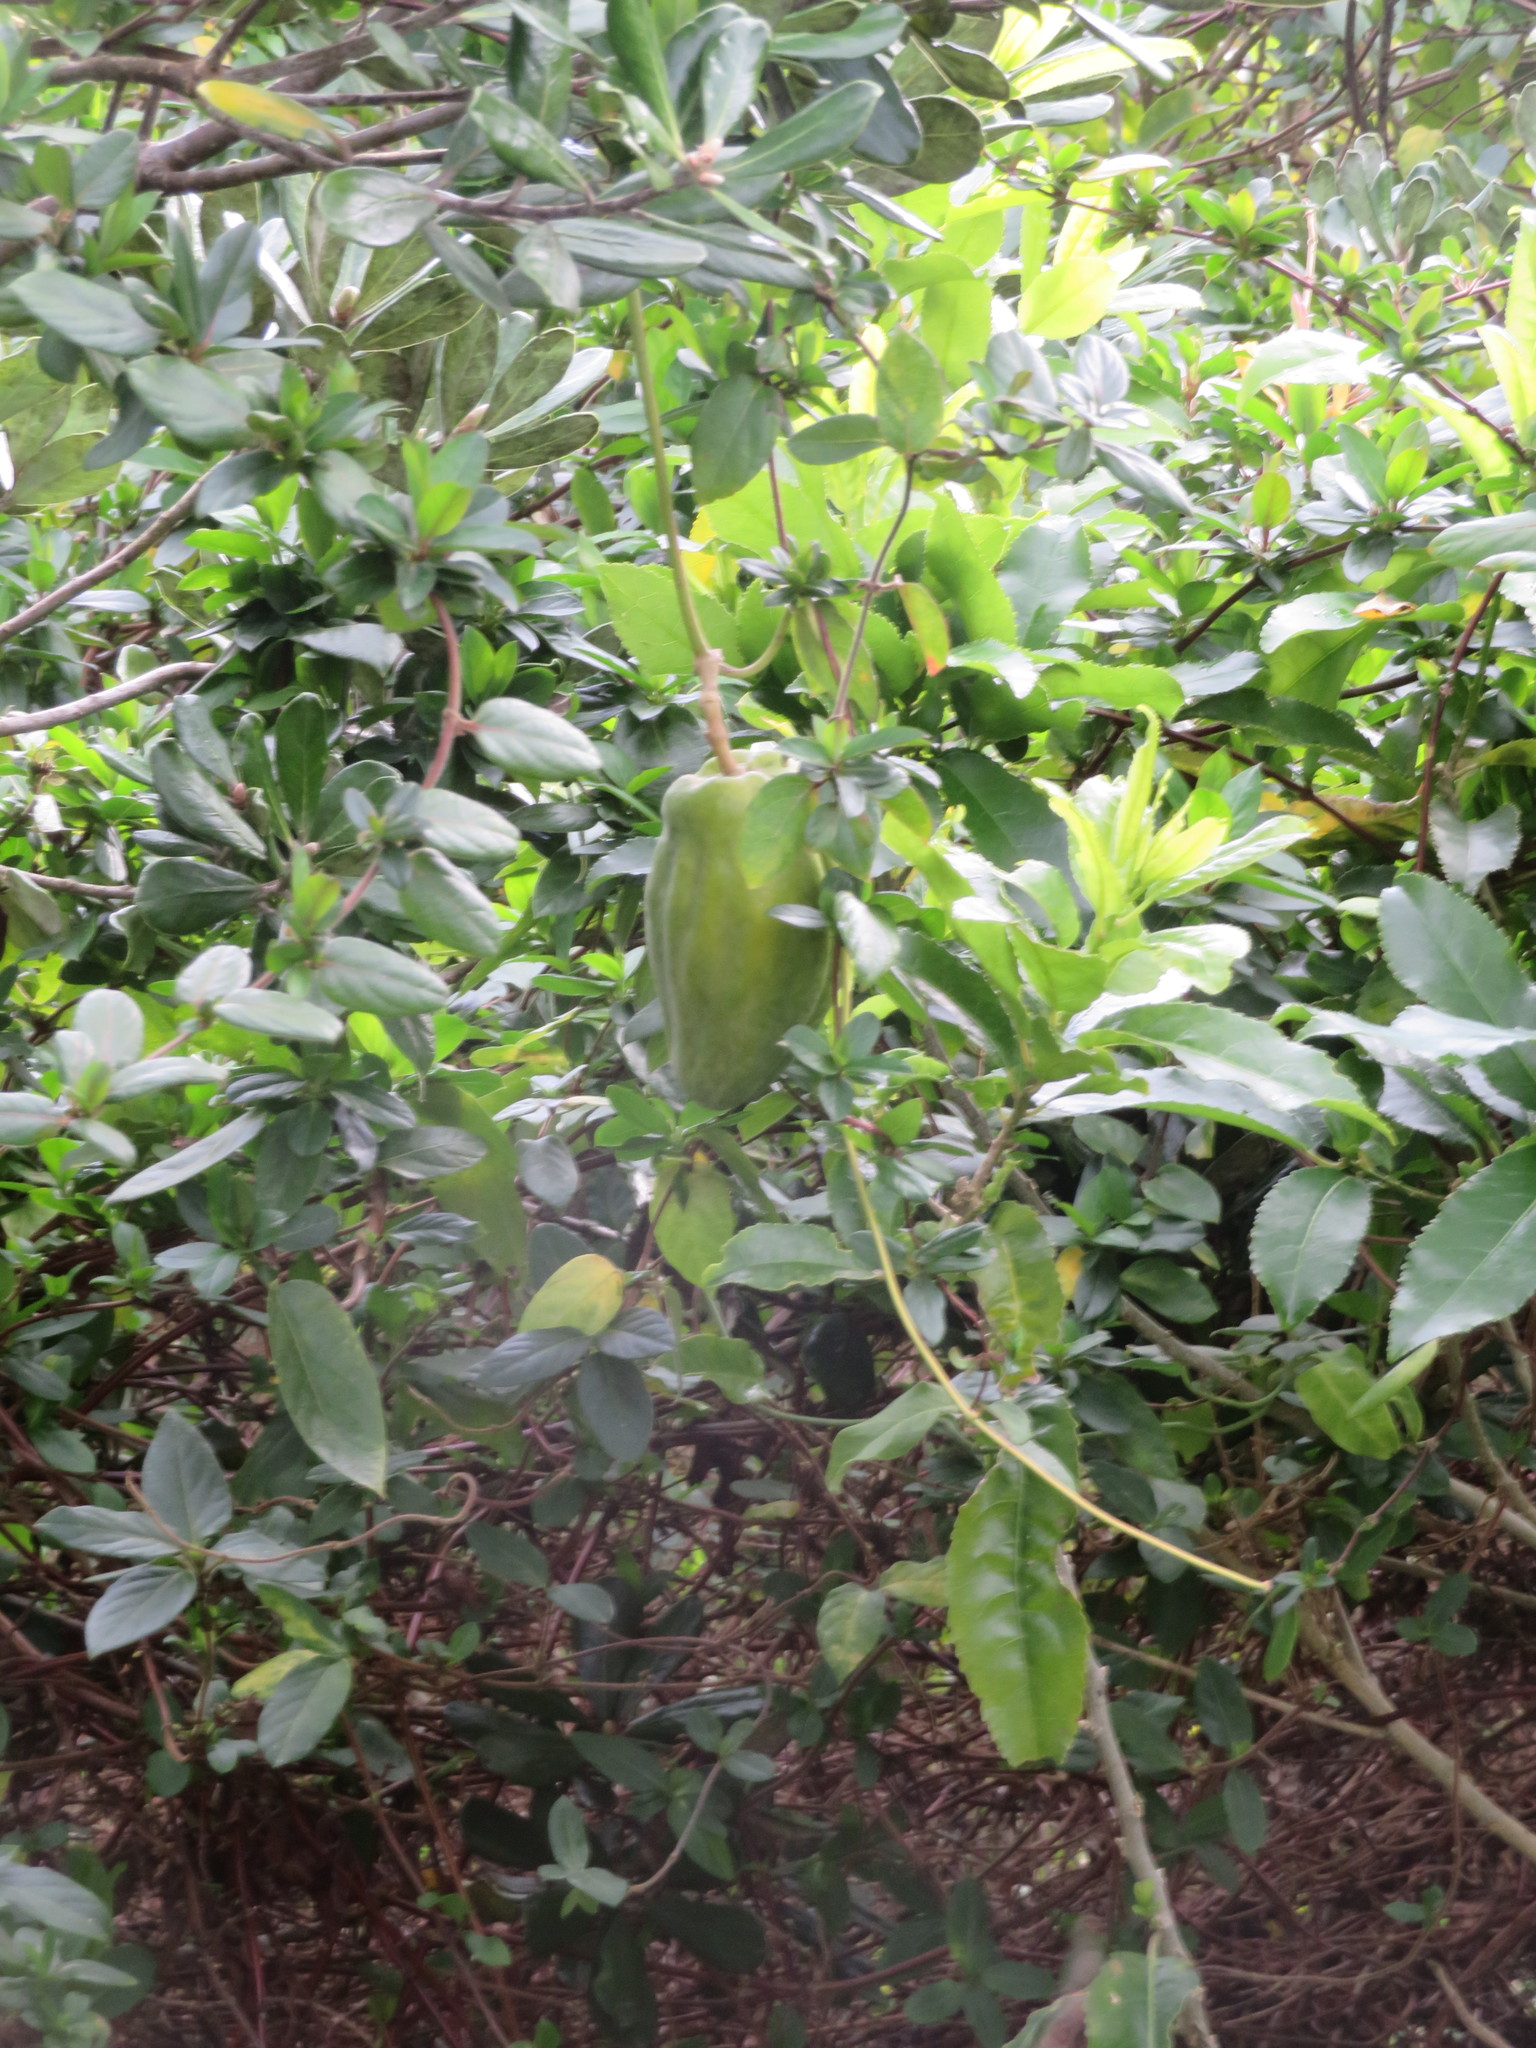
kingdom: Plantae
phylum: Tracheophyta
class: Magnoliopsida
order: Gentianales
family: Apocynaceae
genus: Araujia
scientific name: Araujia sericifera
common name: White bladderflower
